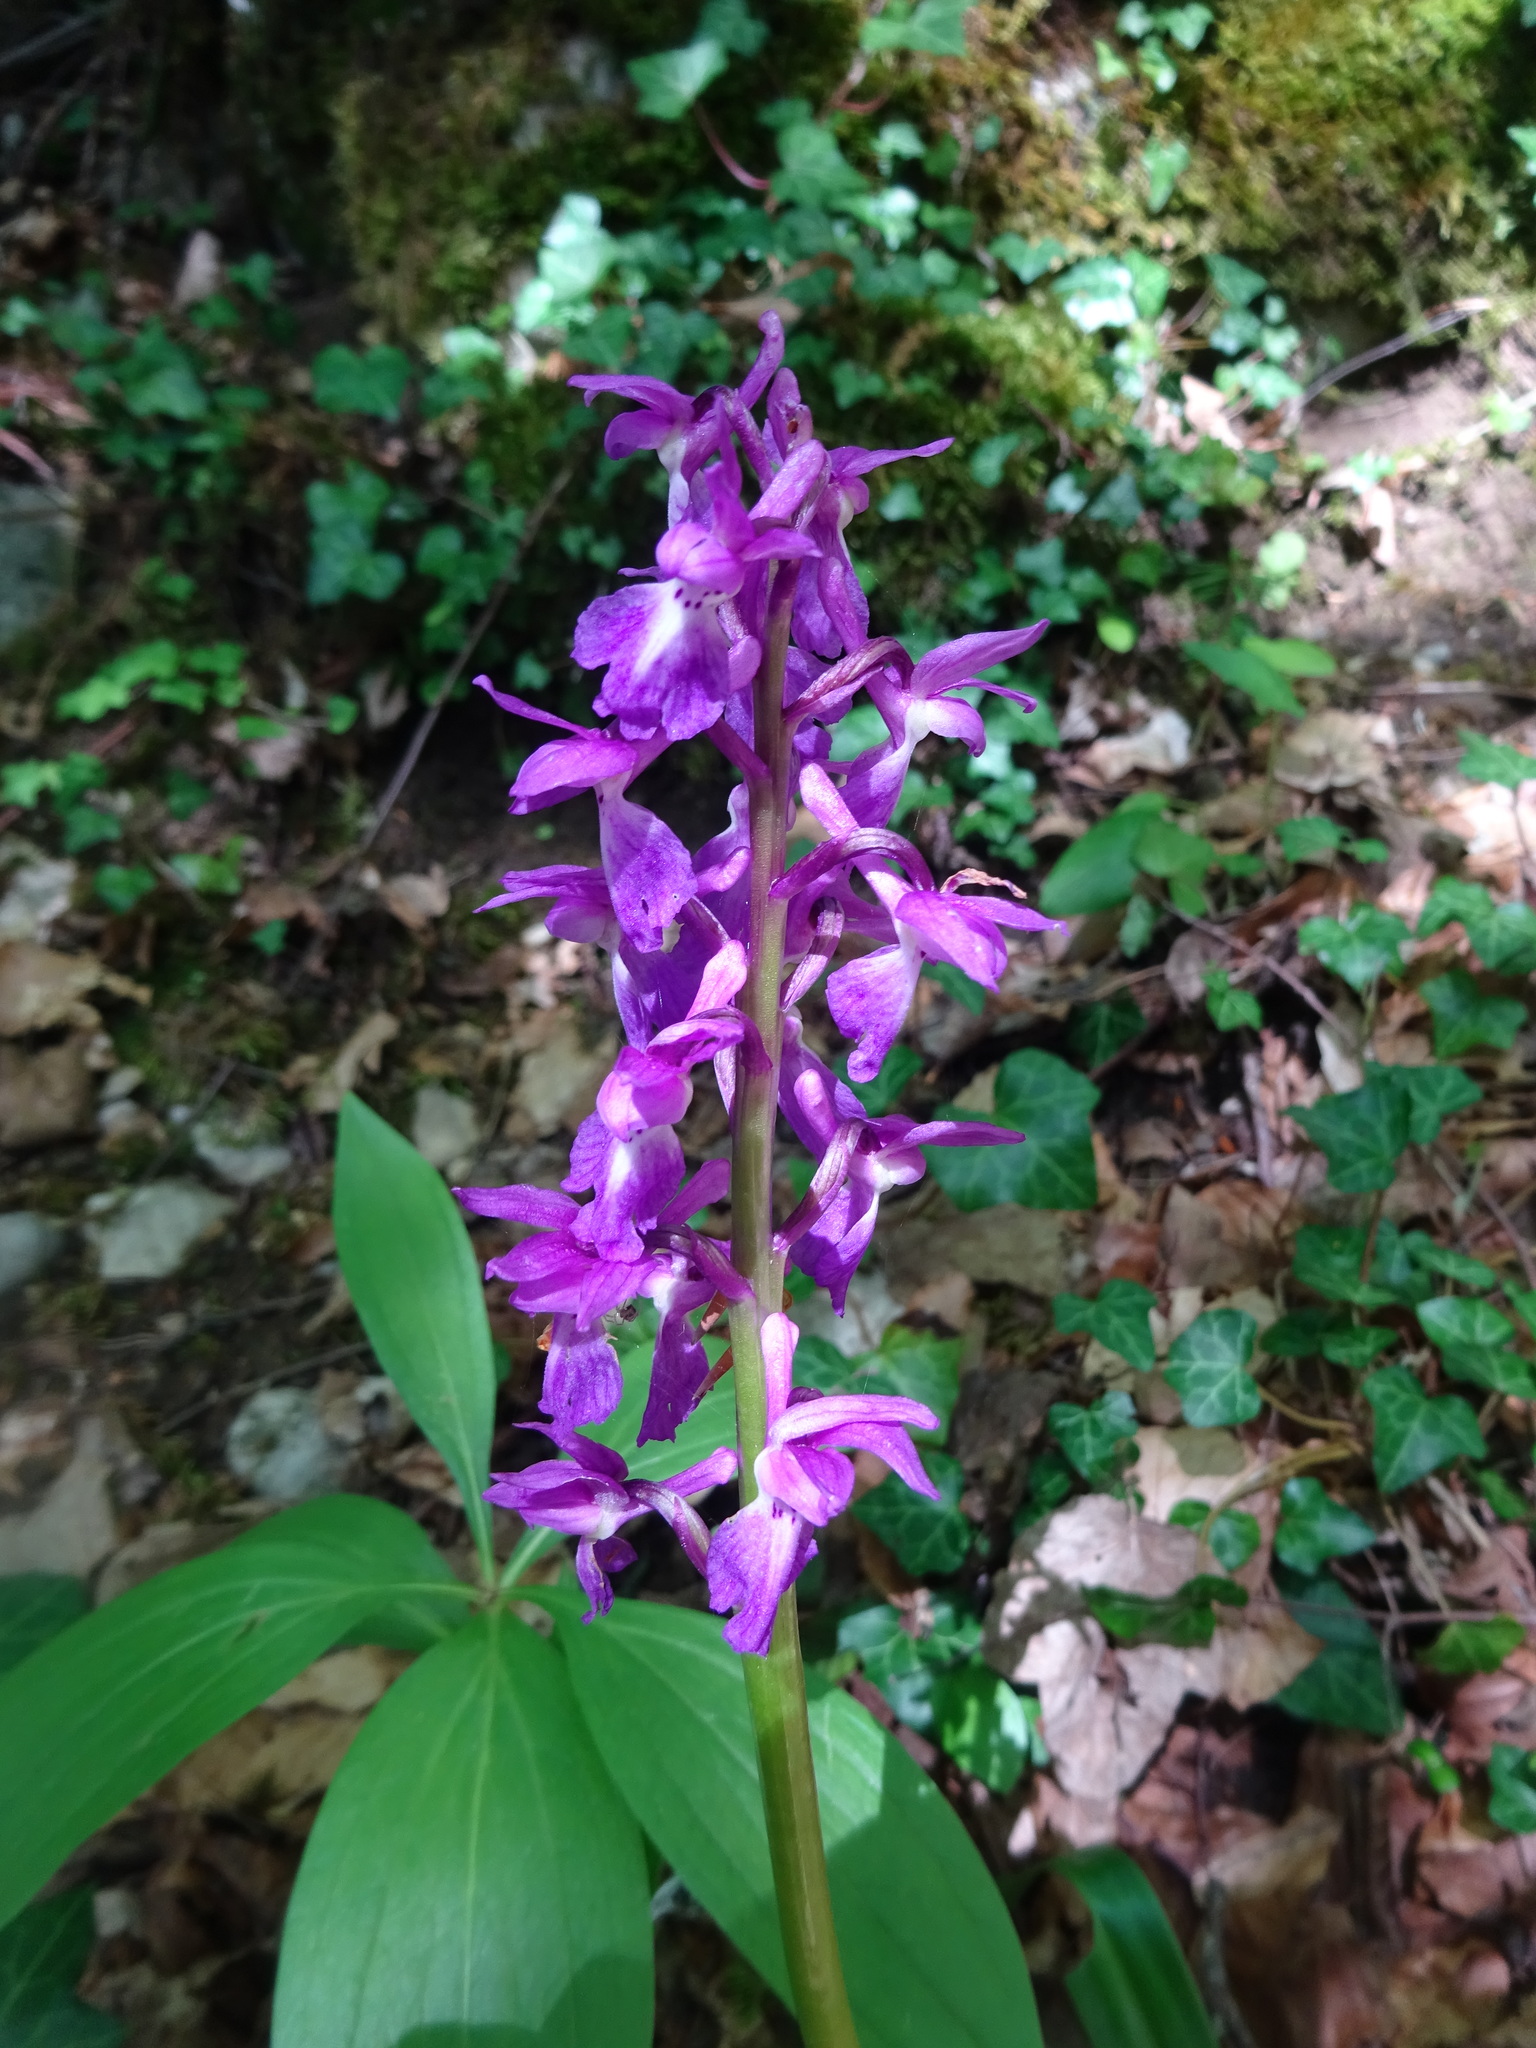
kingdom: Plantae
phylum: Tracheophyta
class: Liliopsida
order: Asparagales
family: Orchidaceae
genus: Orchis
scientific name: Orchis mascula
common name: Early-purple orchid
